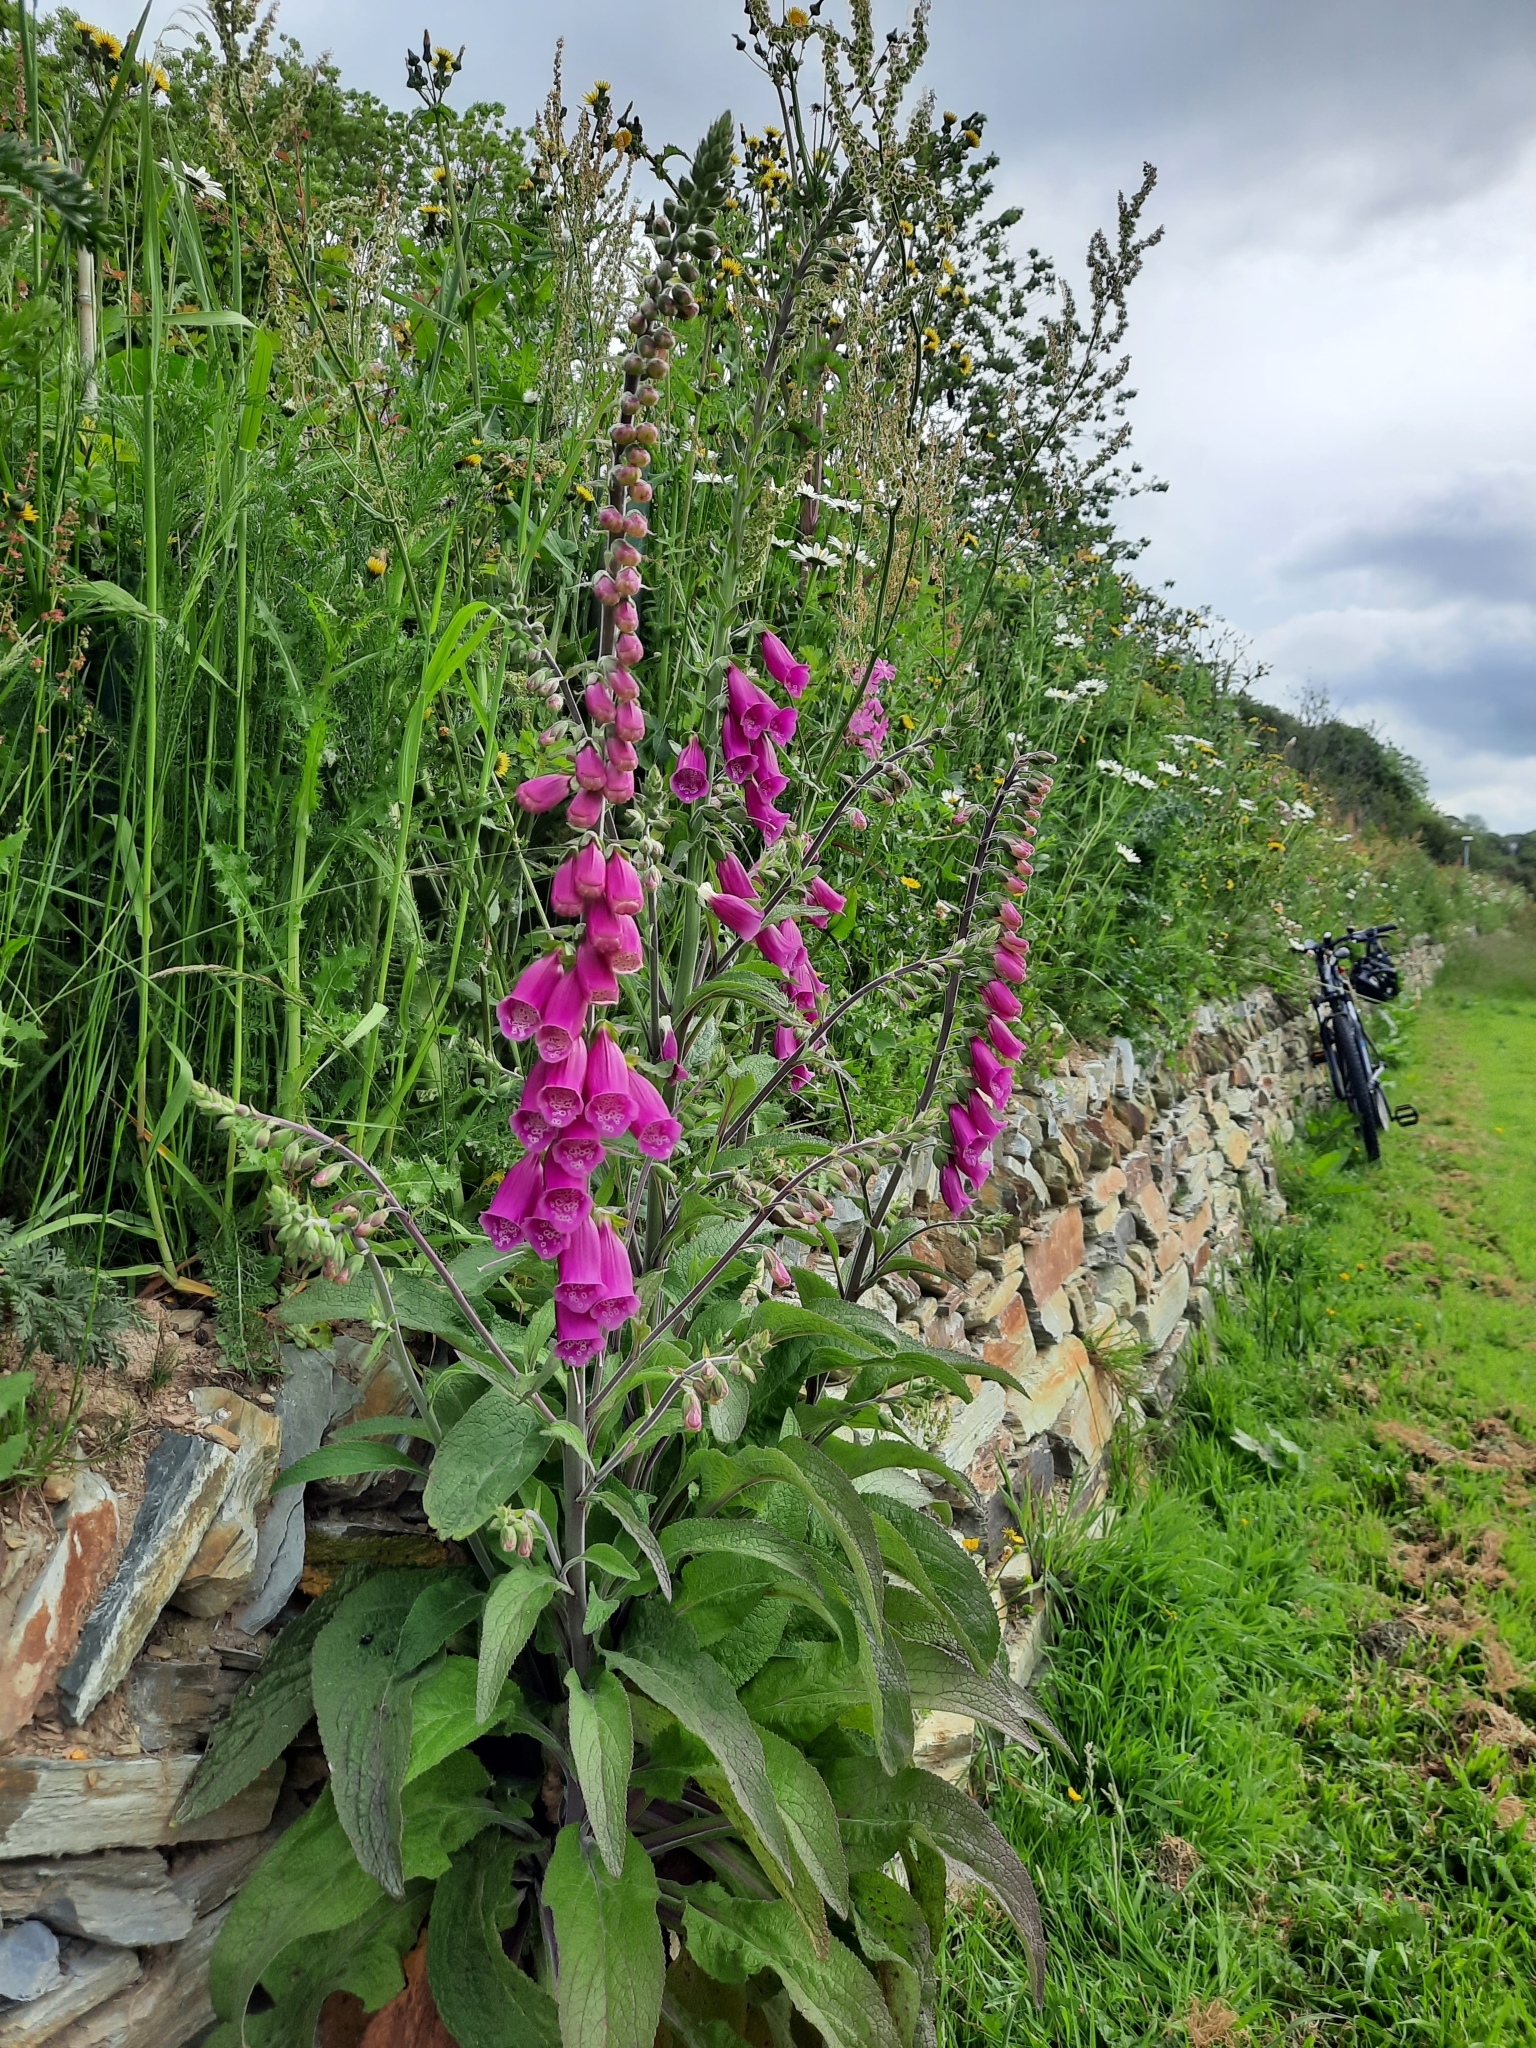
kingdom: Plantae
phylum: Tracheophyta
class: Magnoliopsida
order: Lamiales
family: Plantaginaceae
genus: Digitalis
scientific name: Digitalis purpurea
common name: Foxglove
